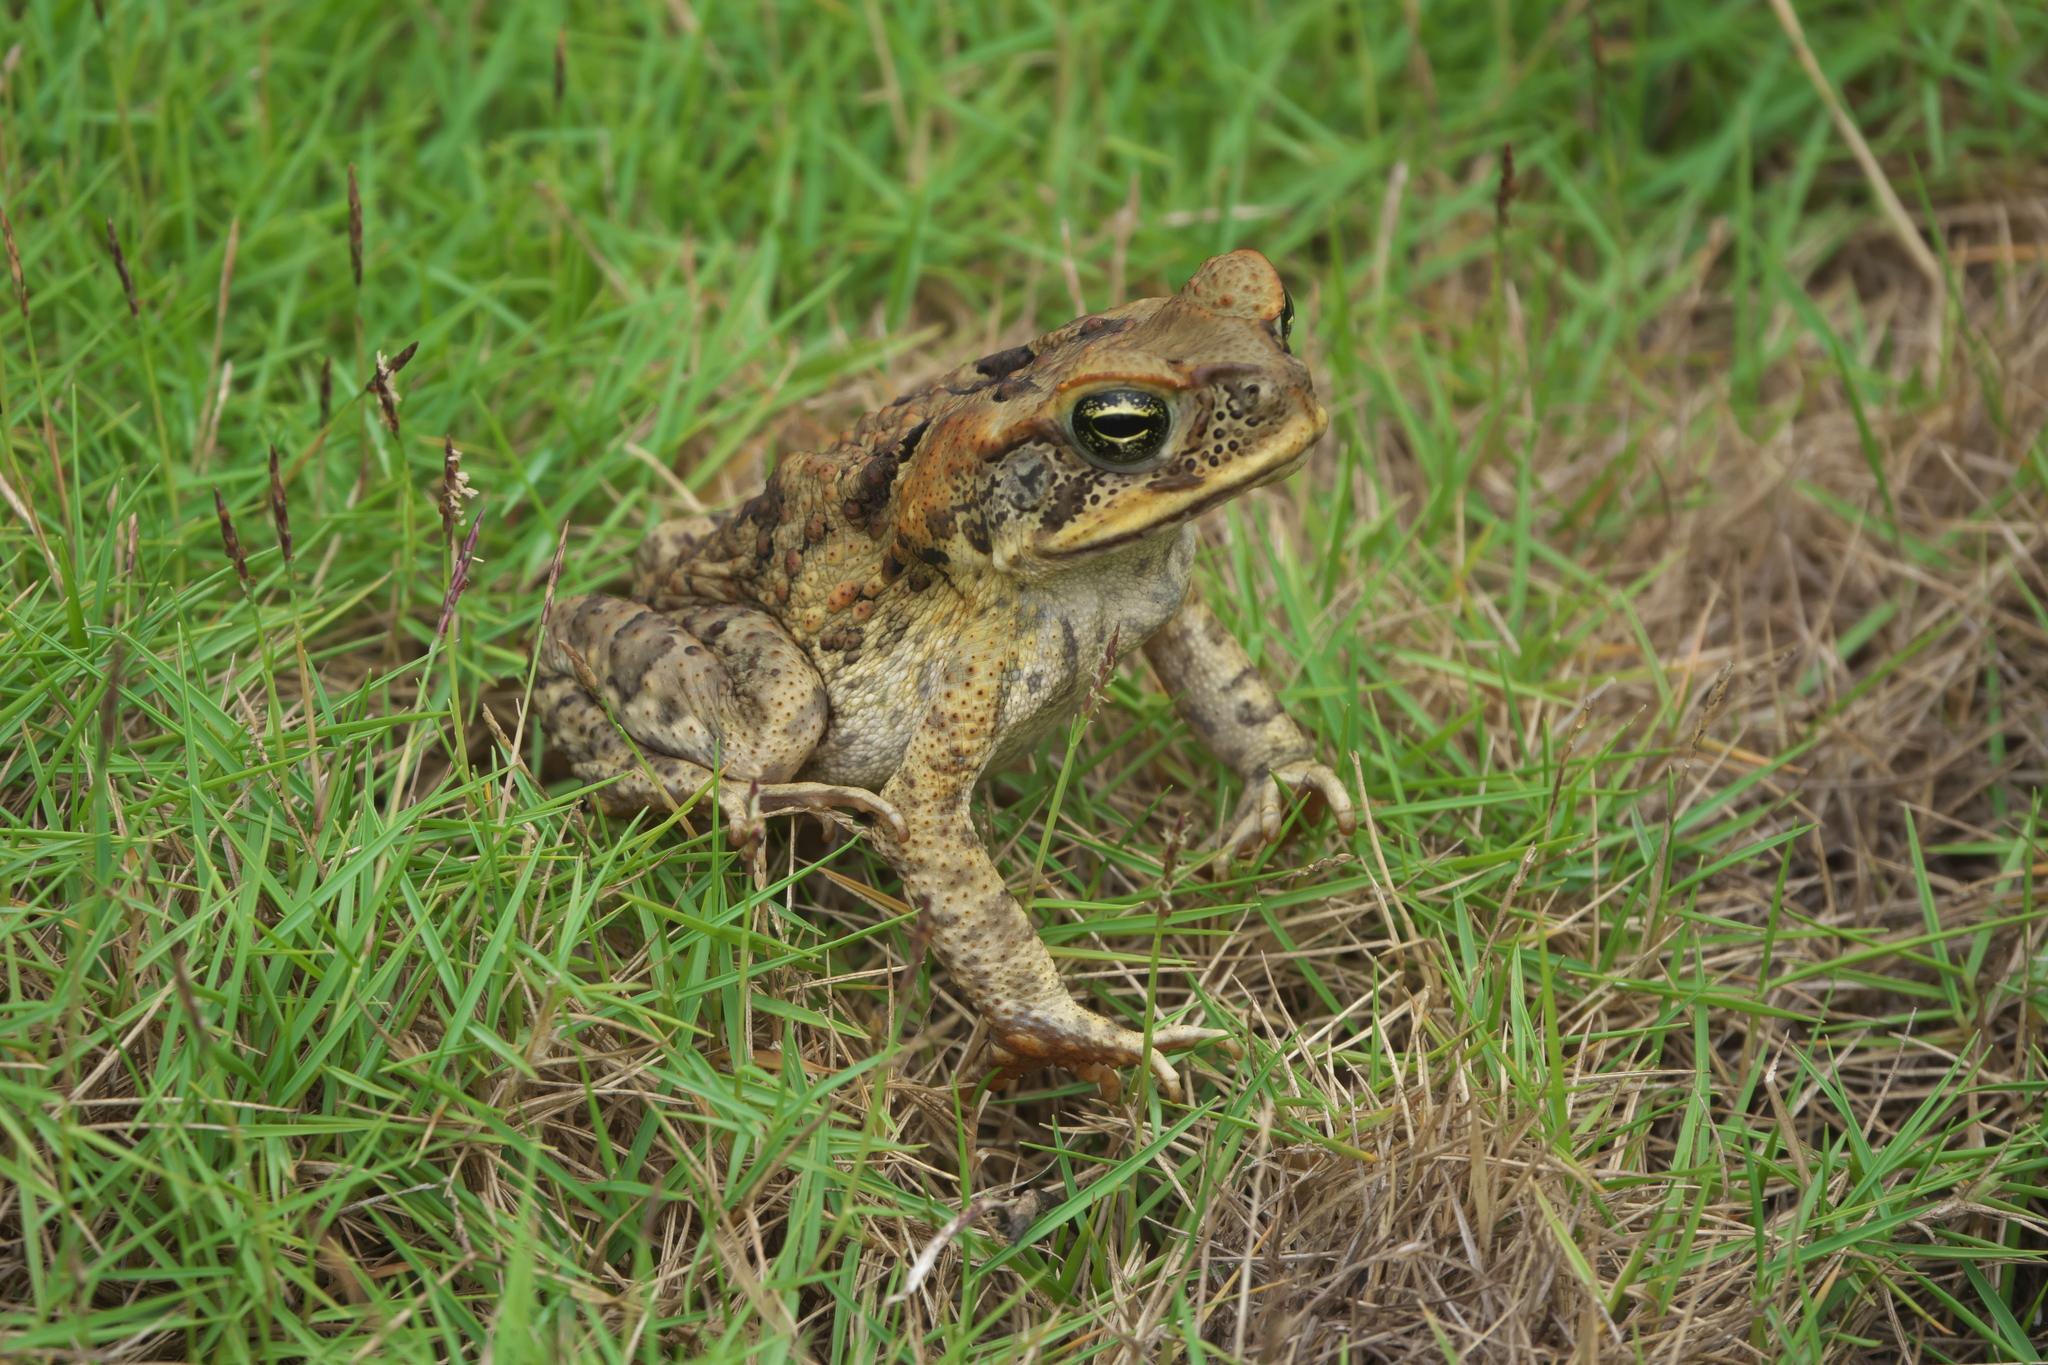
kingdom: Animalia
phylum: Chordata
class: Amphibia
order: Anura
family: Bufonidae
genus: Rhinella
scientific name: Rhinella marina
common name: Cane toad
